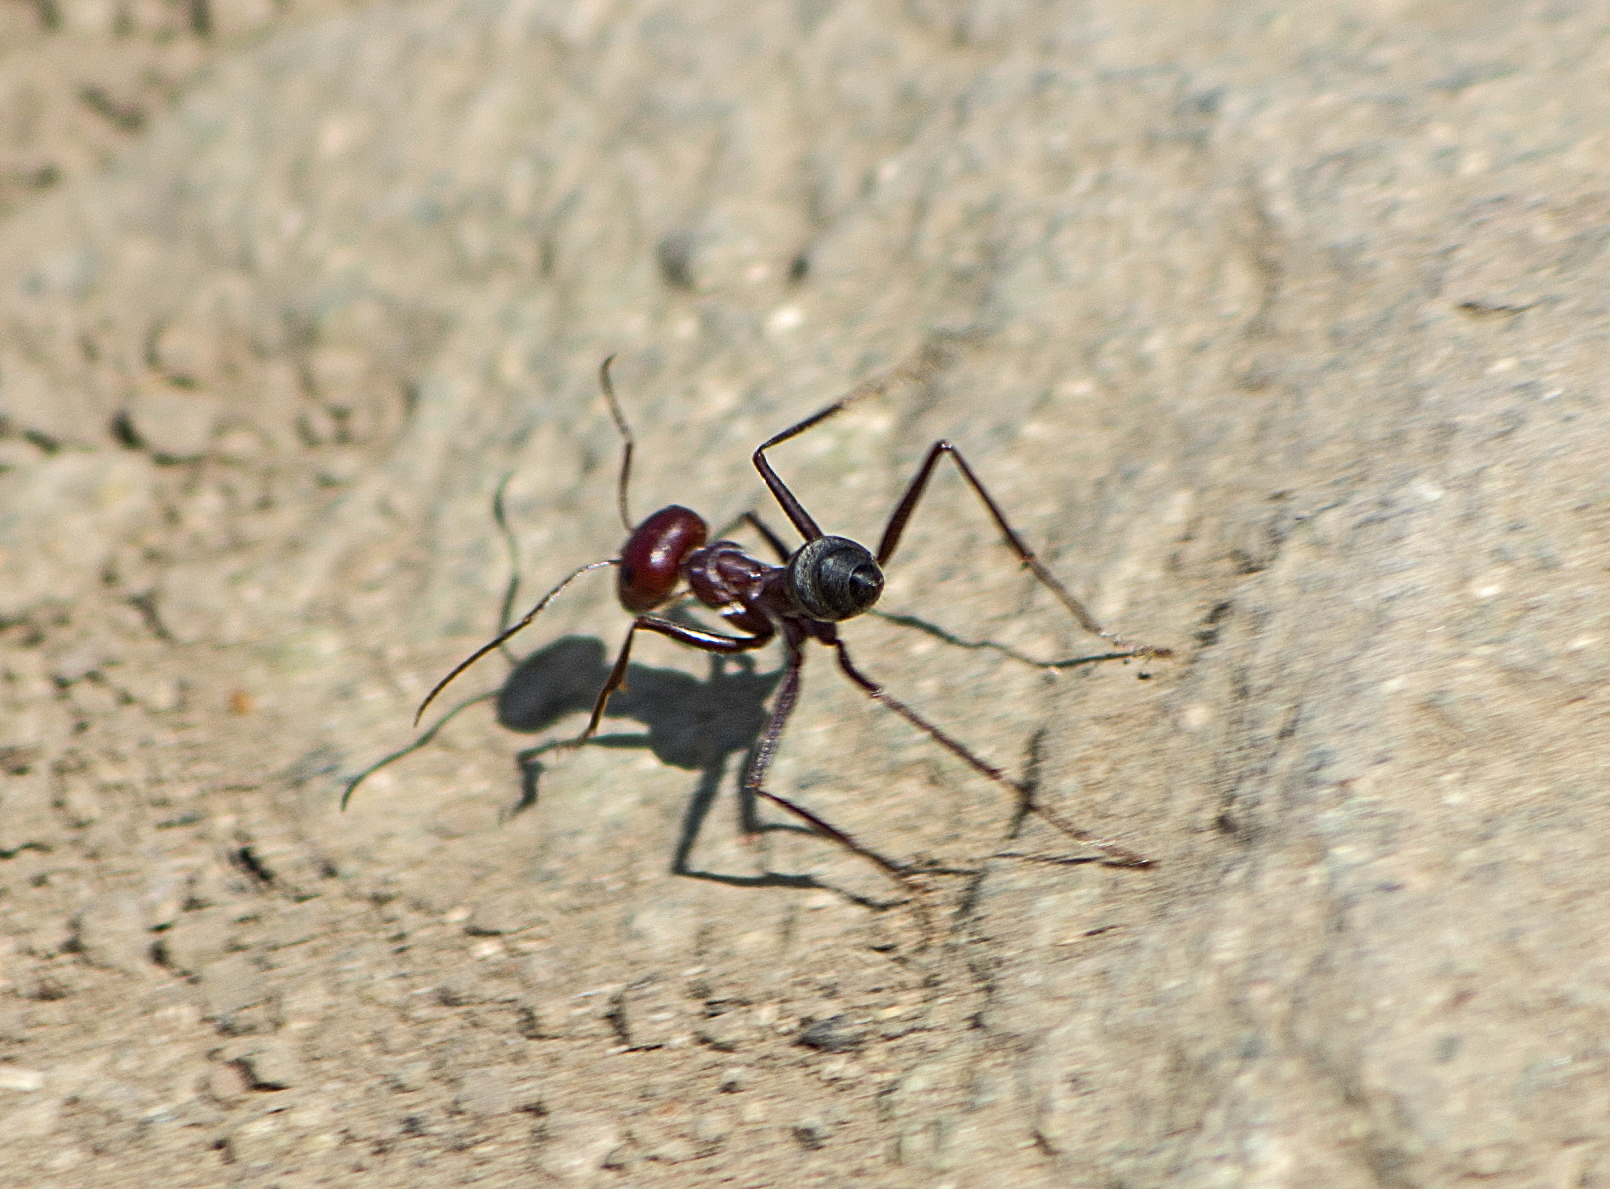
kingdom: Animalia
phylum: Arthropoda
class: Insecta
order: Hymenoptera
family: Formicidae
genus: Cataglyphis
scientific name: Cataglyphis nodus
